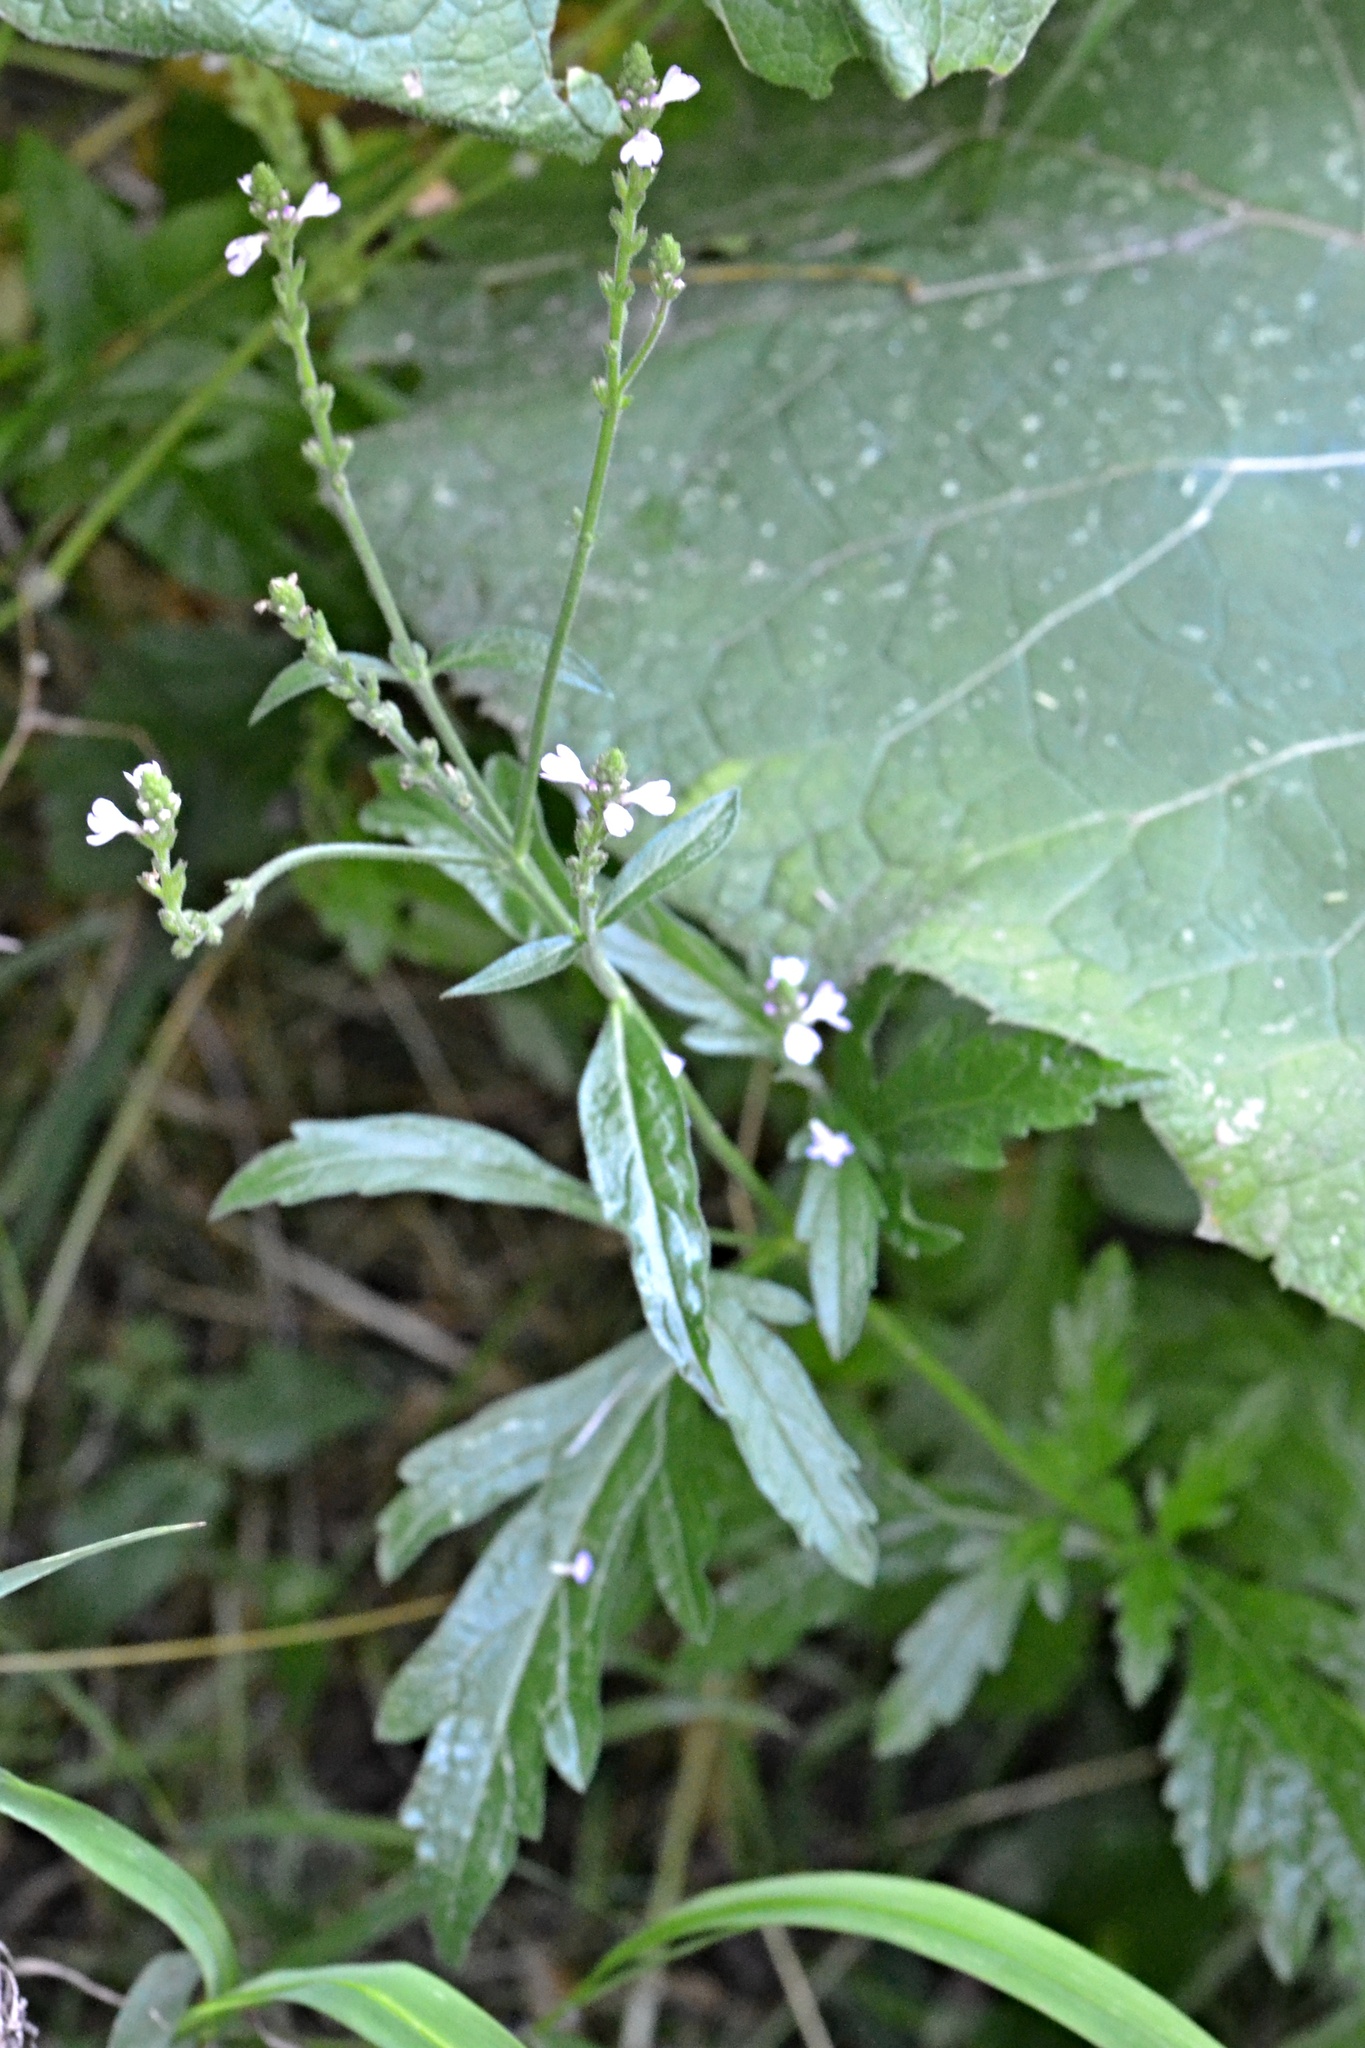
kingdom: Plantae
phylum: Tracheophyta
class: Magnoliopsida
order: Lamiales
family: Verbenaceae
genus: Verbena
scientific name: Verbena officinalis
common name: Vervain
